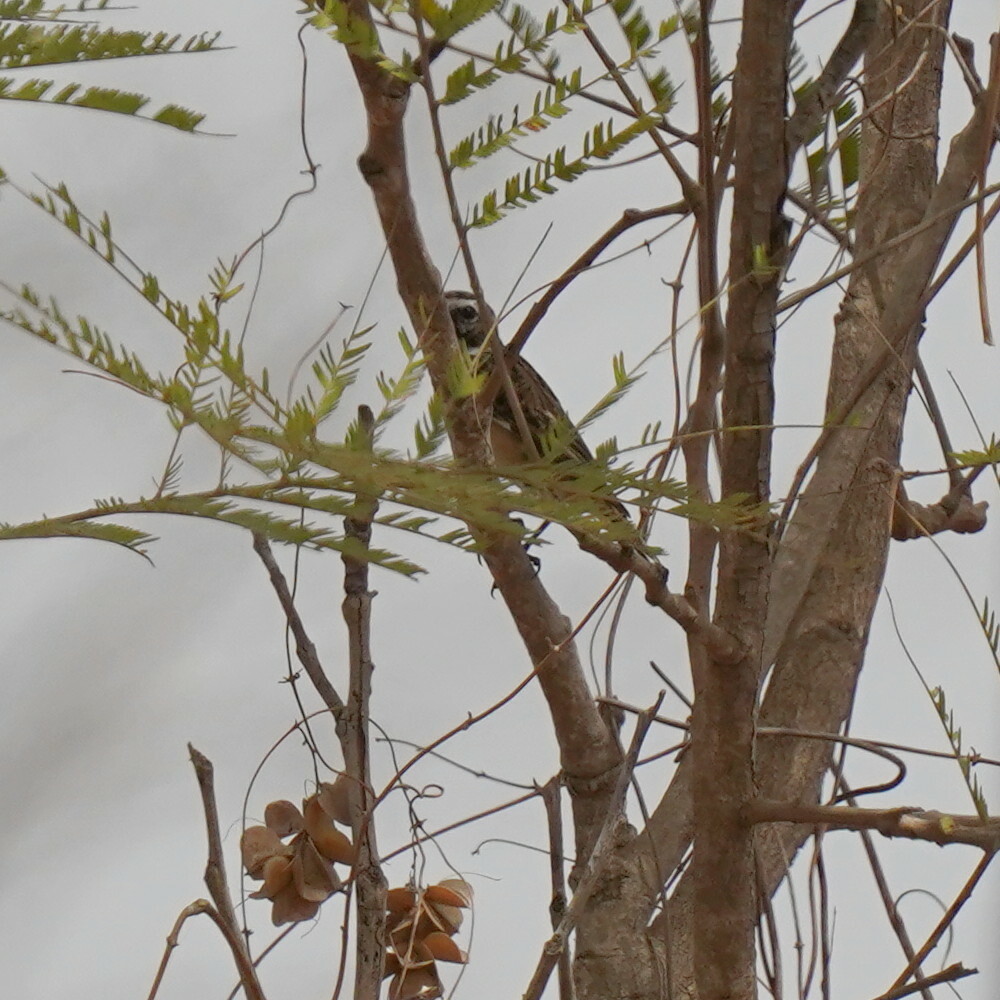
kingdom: Animalia
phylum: Chordata
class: Aves
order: Passeriformes
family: Muscicapidae
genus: Saxicola
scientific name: Saxicola rubetra
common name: Whinchat
